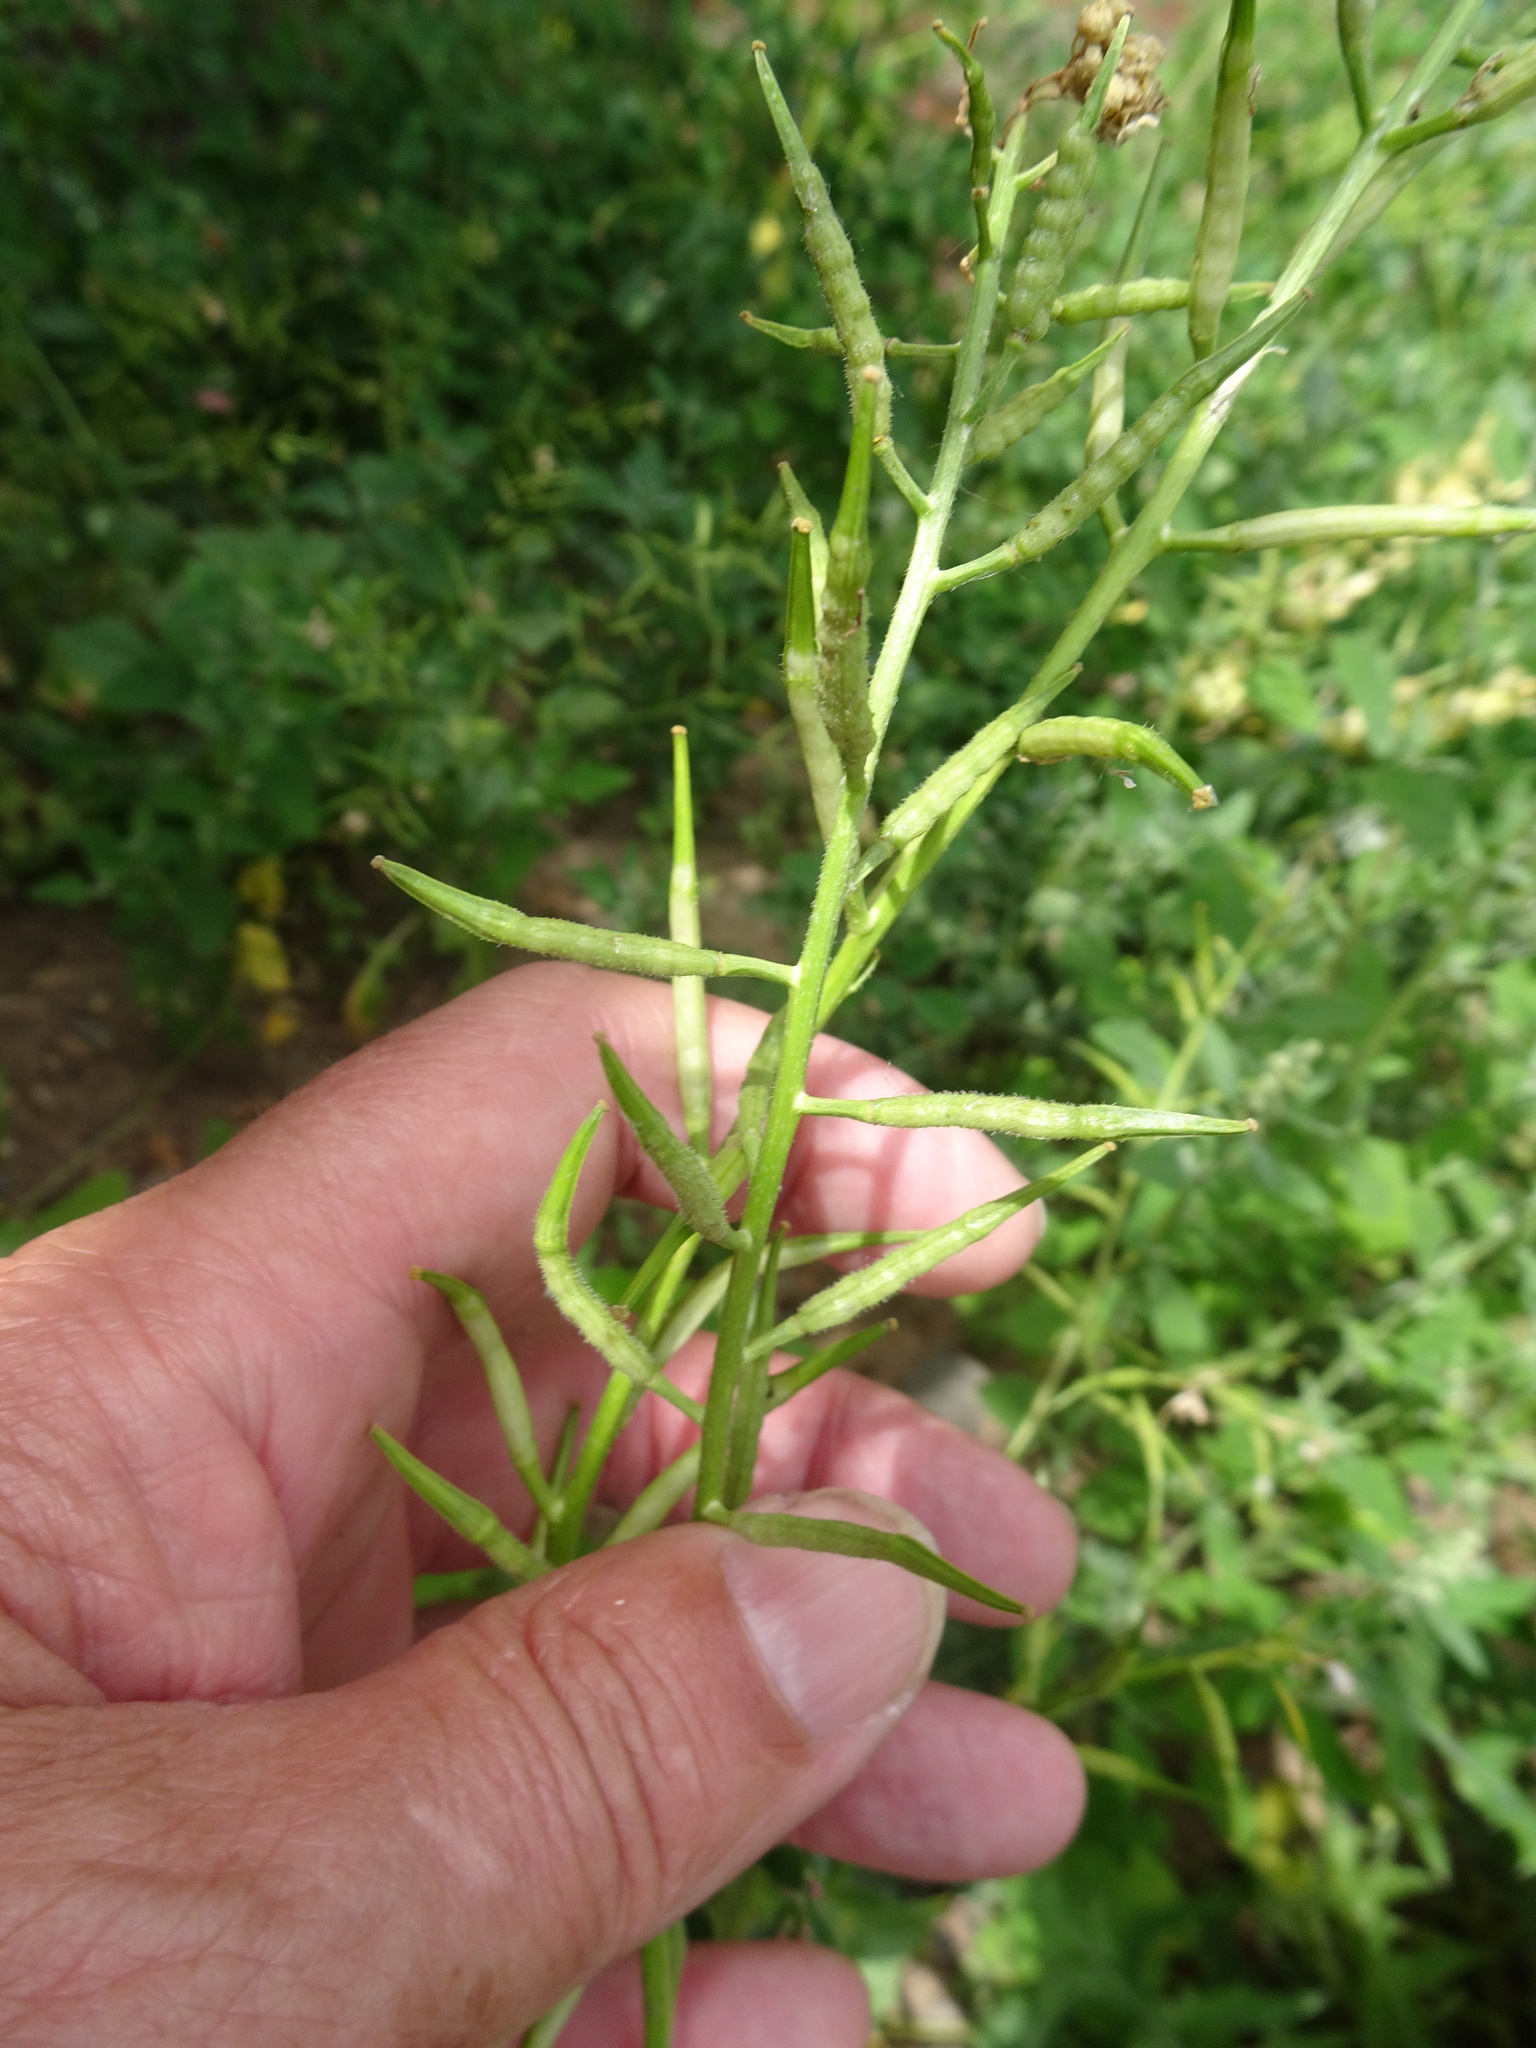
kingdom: Plantae
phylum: Tracheophyta
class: Magnoliopsida
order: Brassicales
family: Brassicaceae
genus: Sinapis
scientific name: Sinapis arvensis
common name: Charlock
